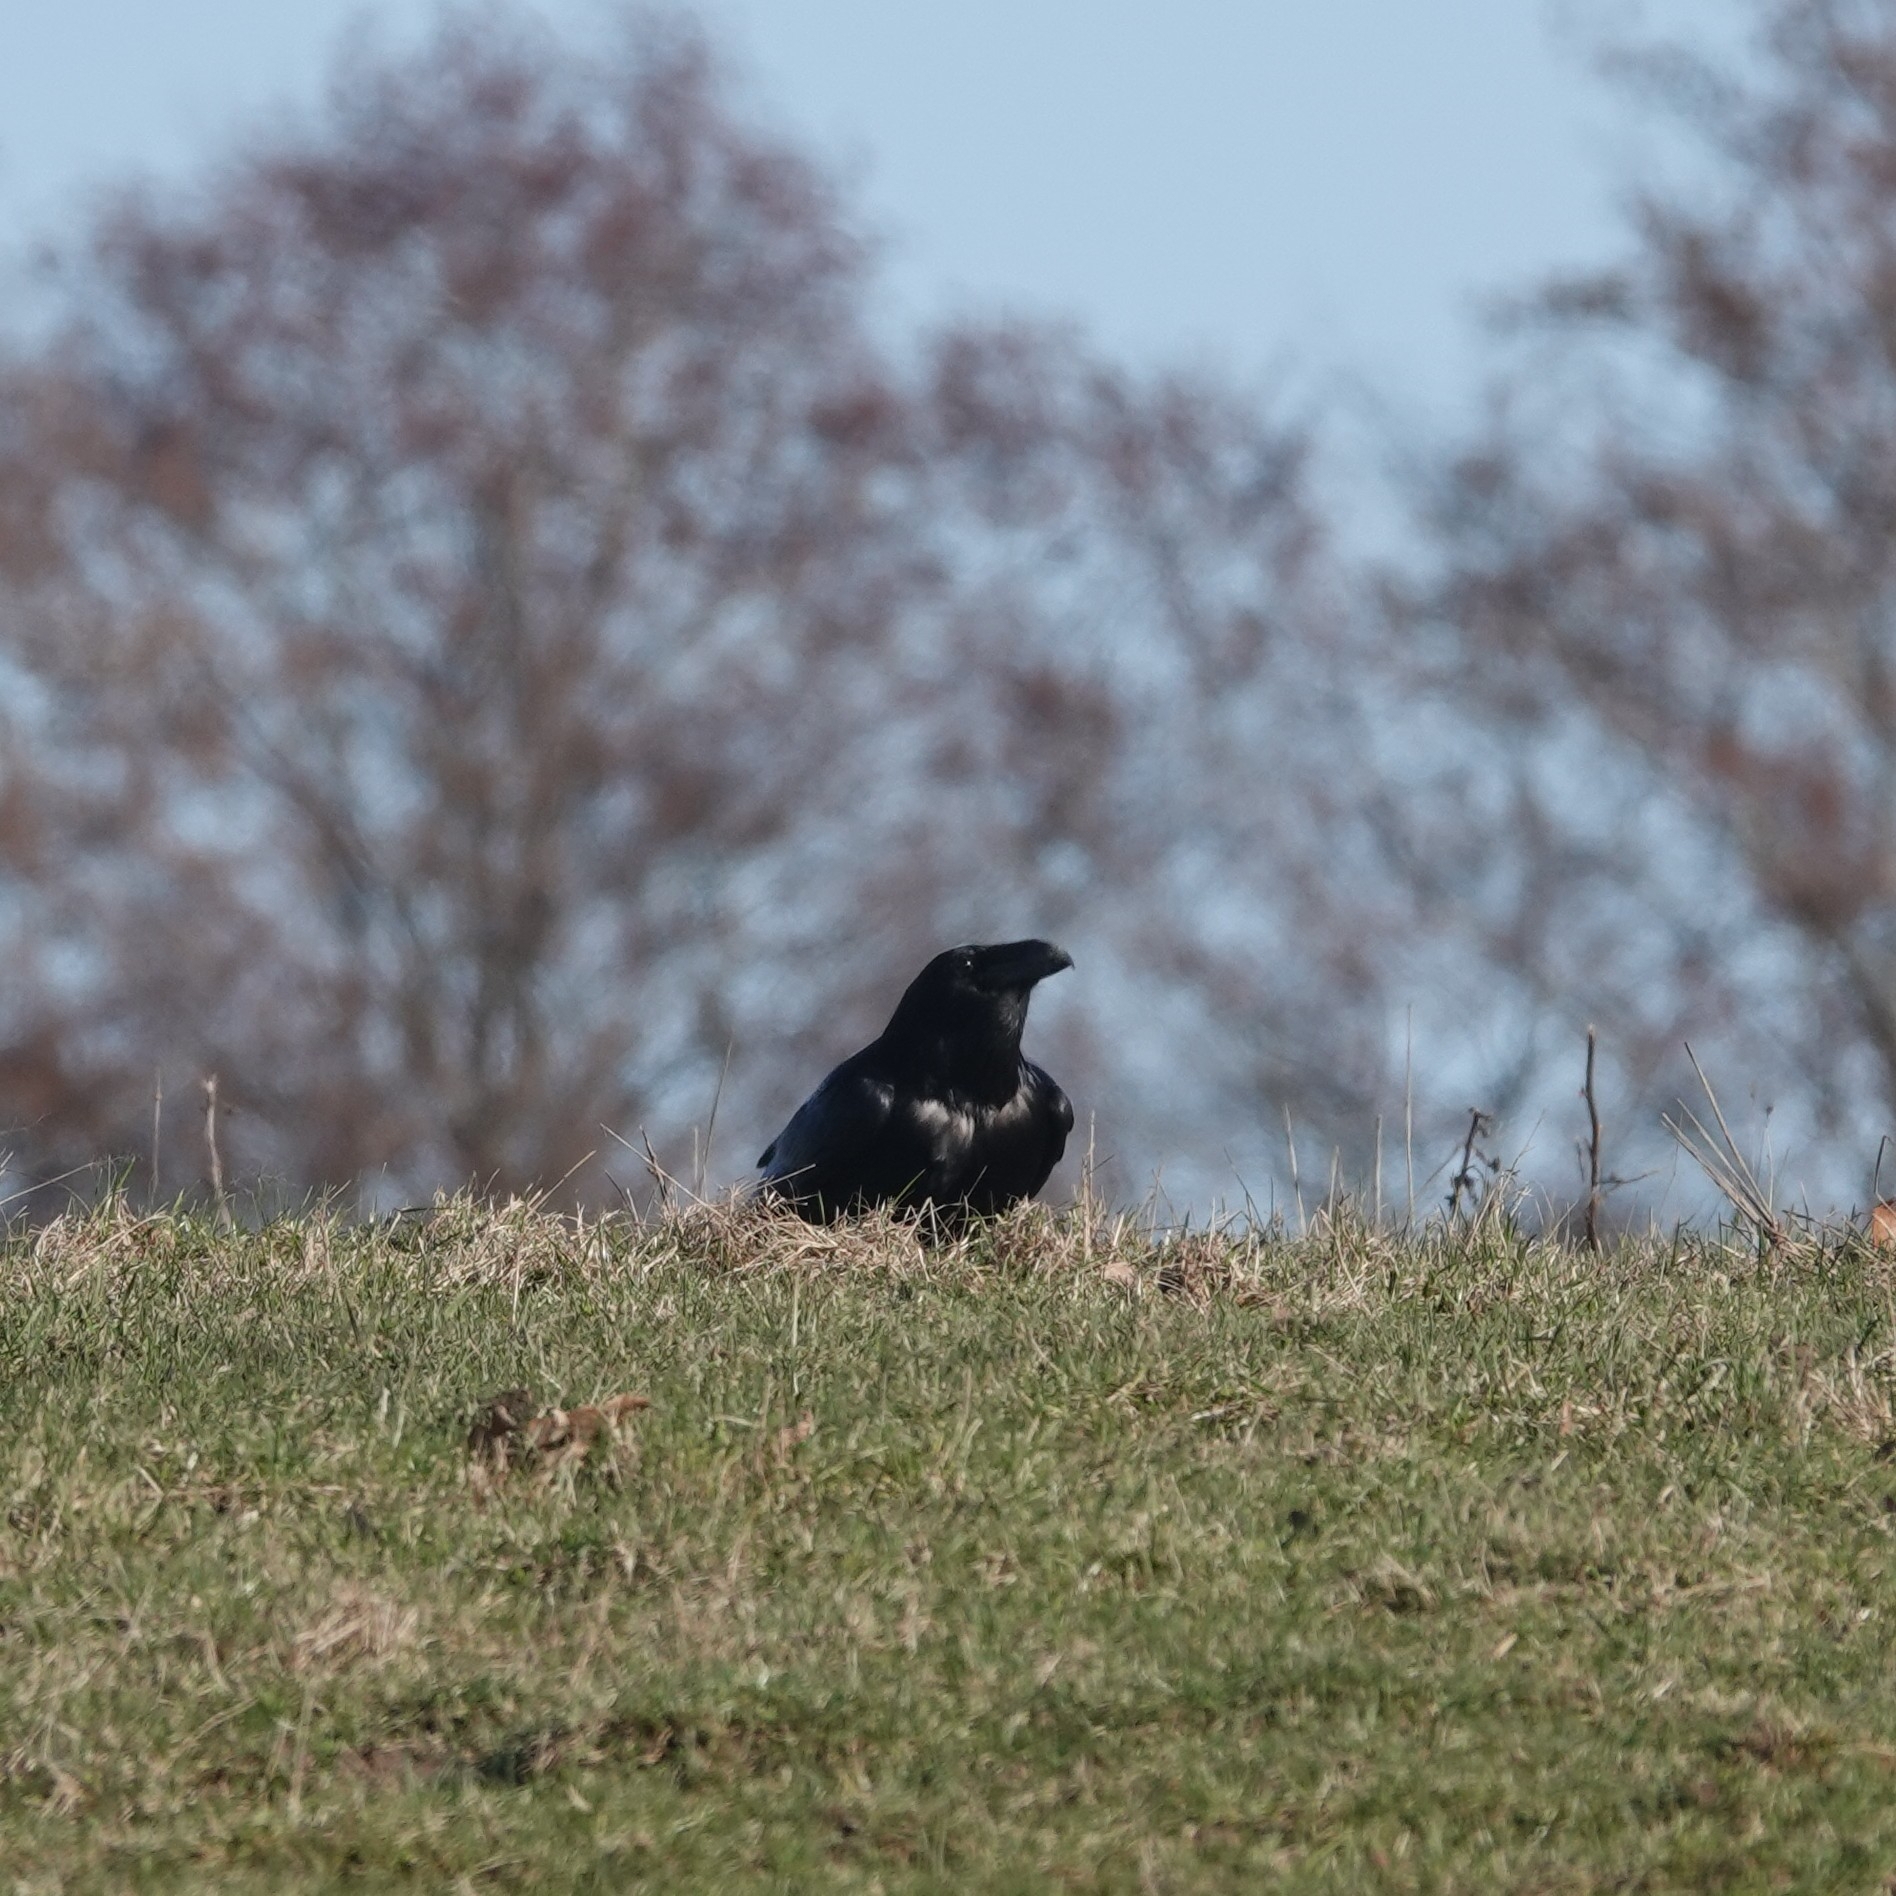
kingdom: Animalia
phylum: Chordata
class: Aves
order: Passeriformes
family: Corvidae
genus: Corvus
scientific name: Corvus corax
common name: Common raven
